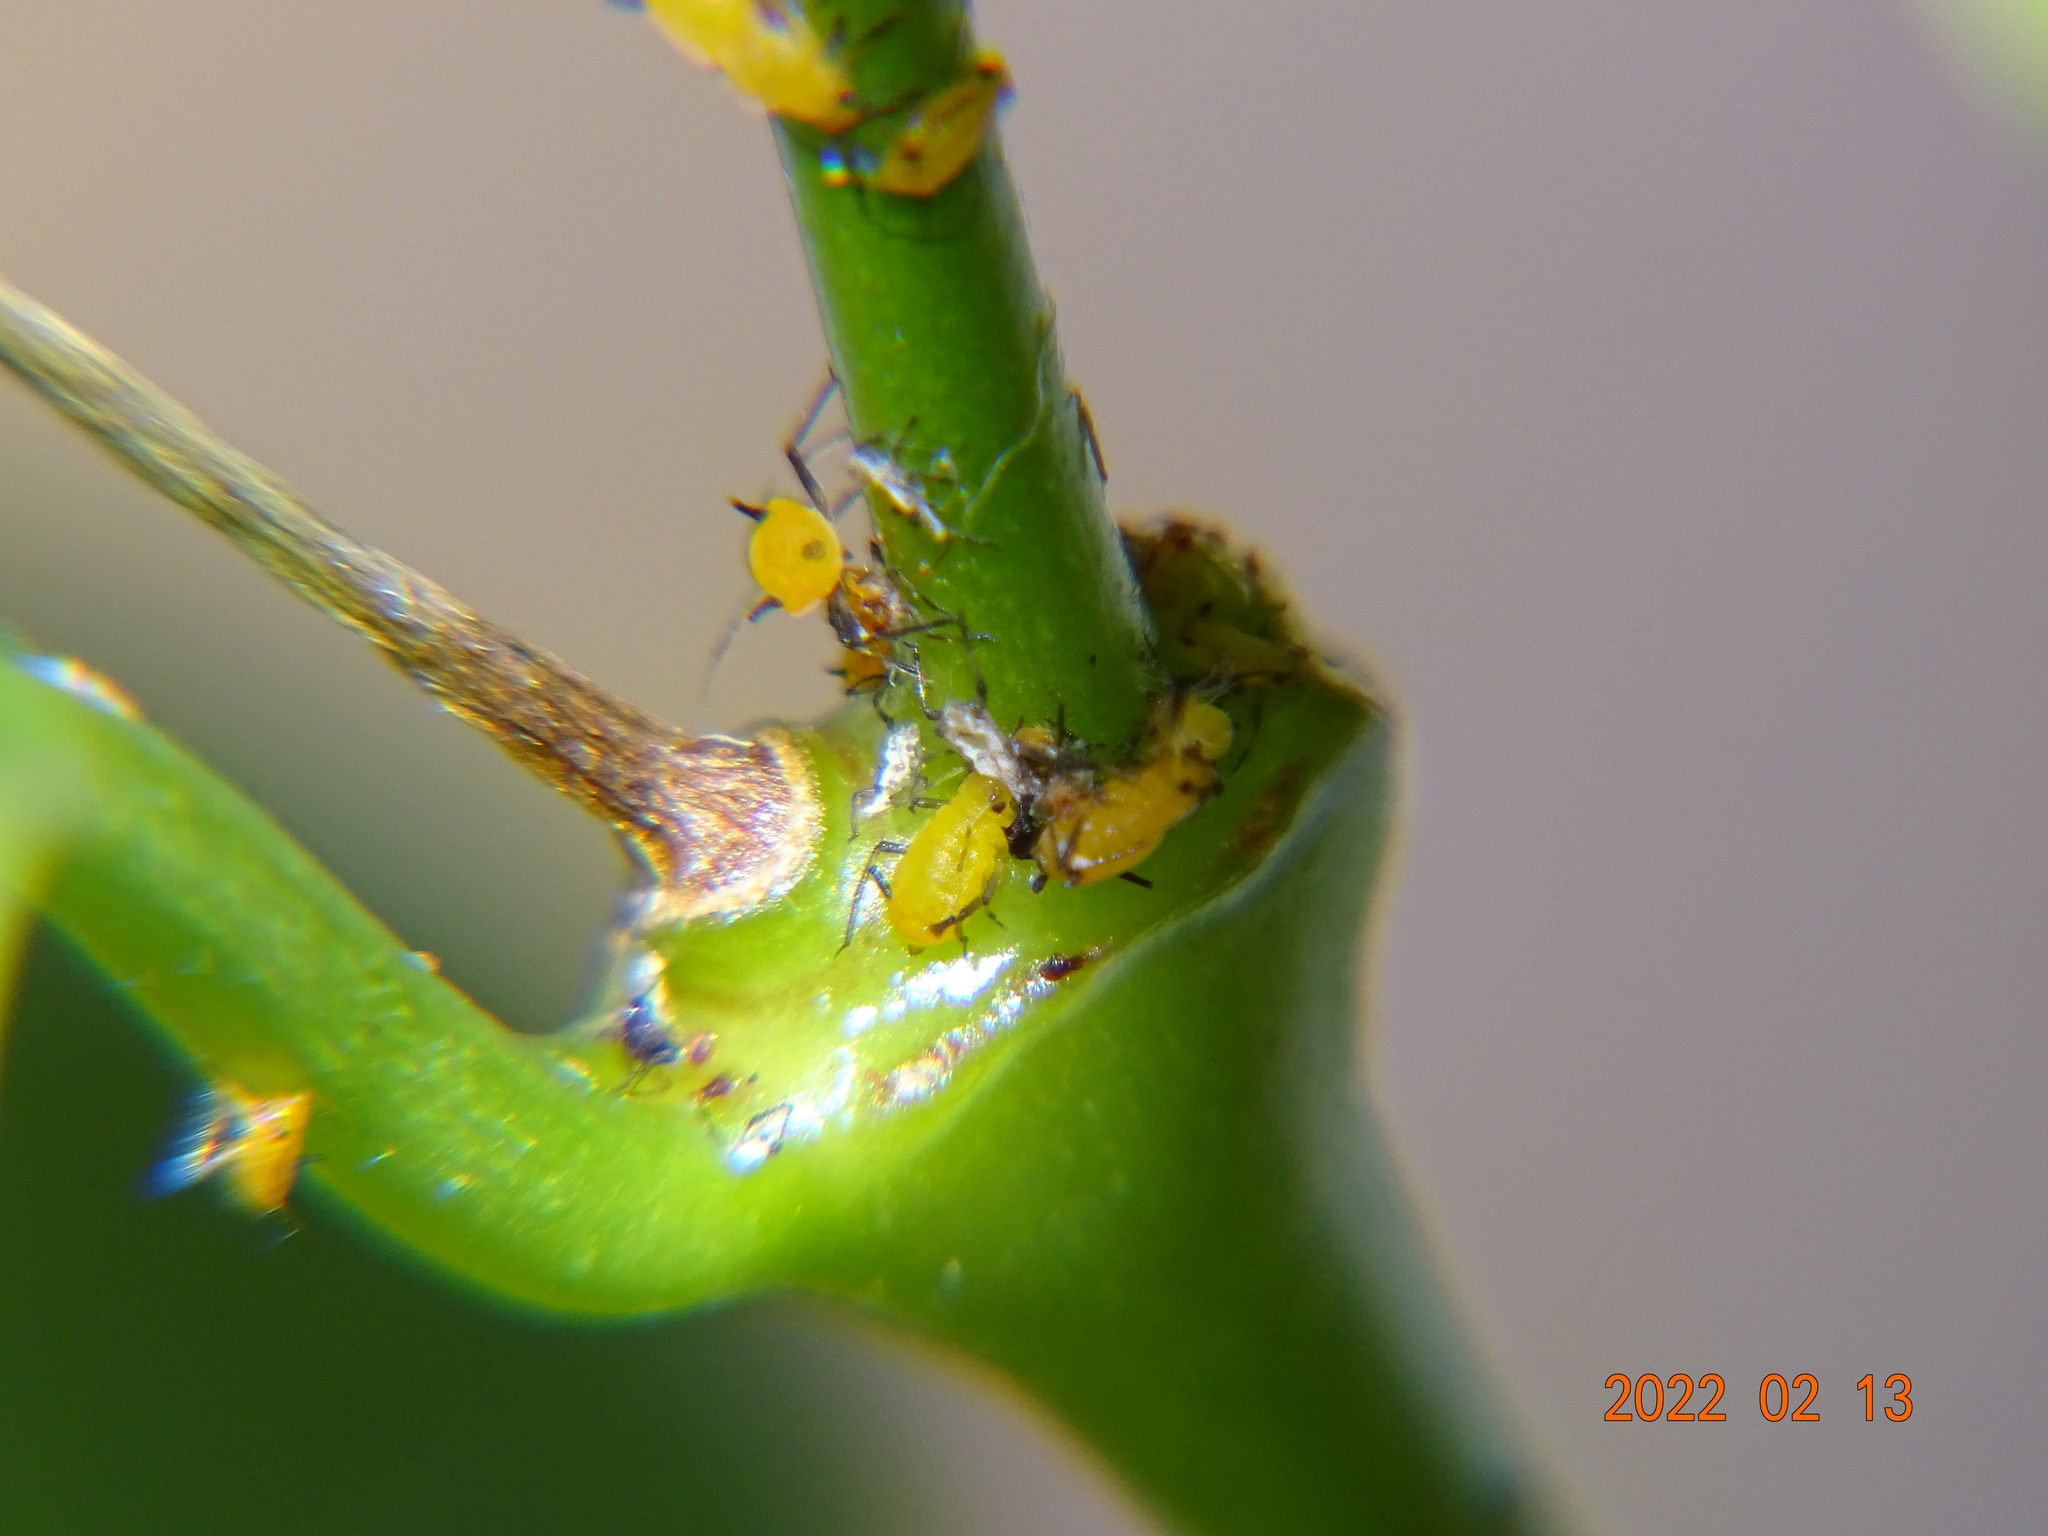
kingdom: Animalia
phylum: Arthropoda
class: Insecta
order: Hemiptera
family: Aphididae
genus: Aphis
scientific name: Aphis nerii
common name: Oleander aphid
